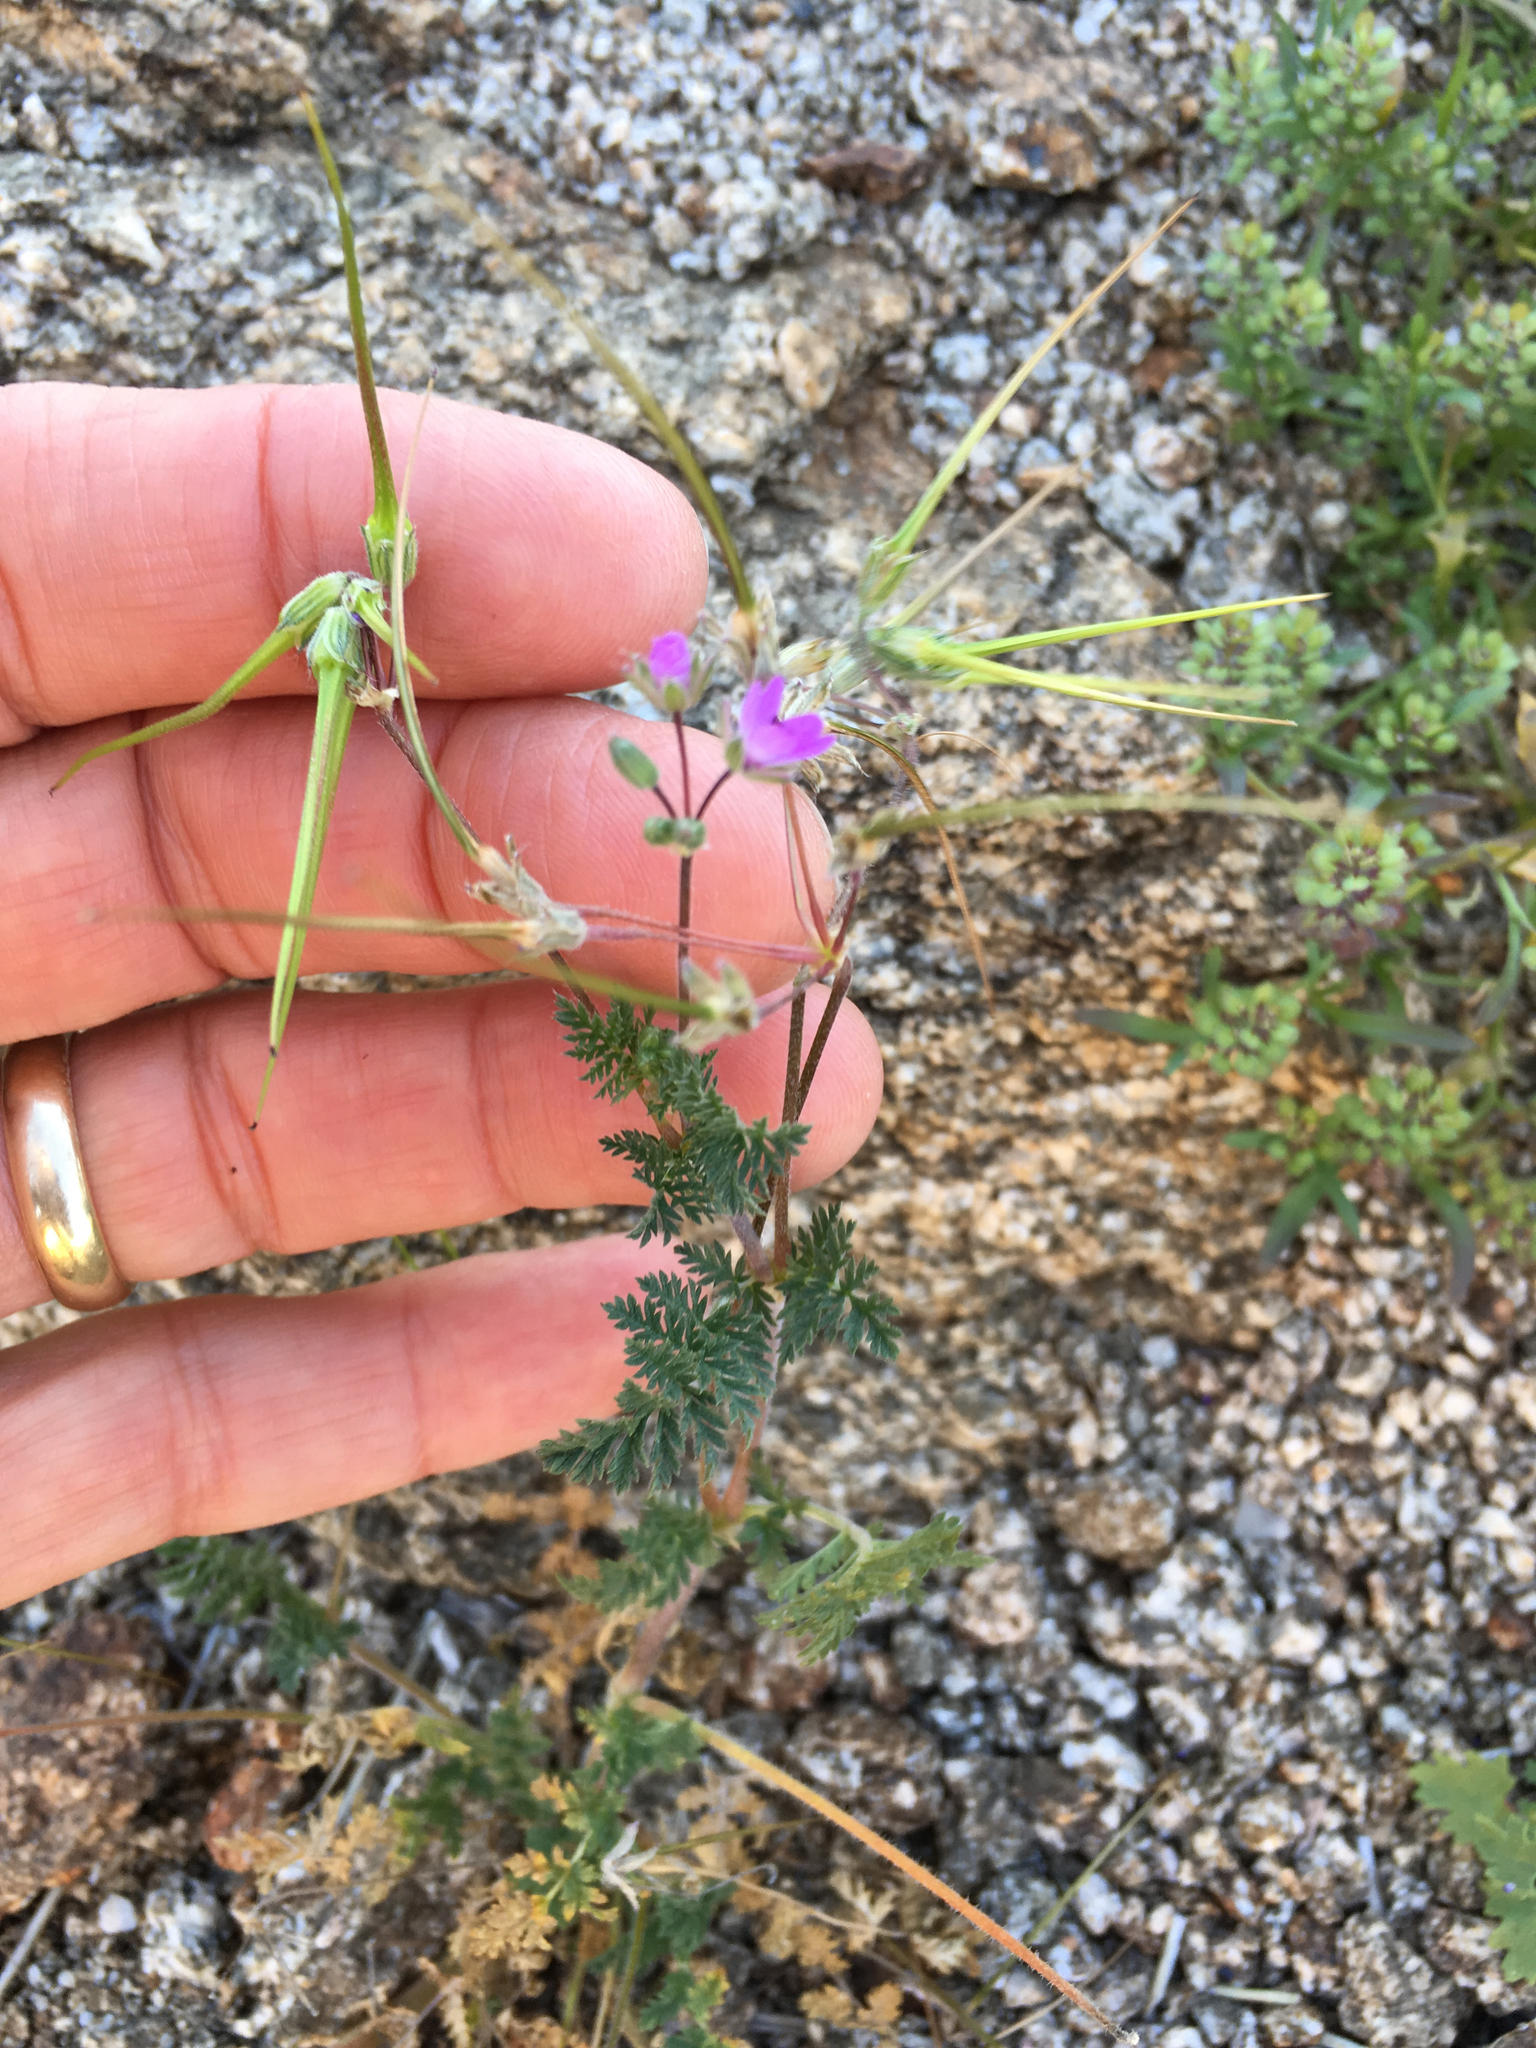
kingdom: Plantae
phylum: Tracheophyta
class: Magnoliopsida
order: Geraniales
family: Geraniaceae
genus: Erodium
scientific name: Erodium cicutarium
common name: Common stork's-bill
